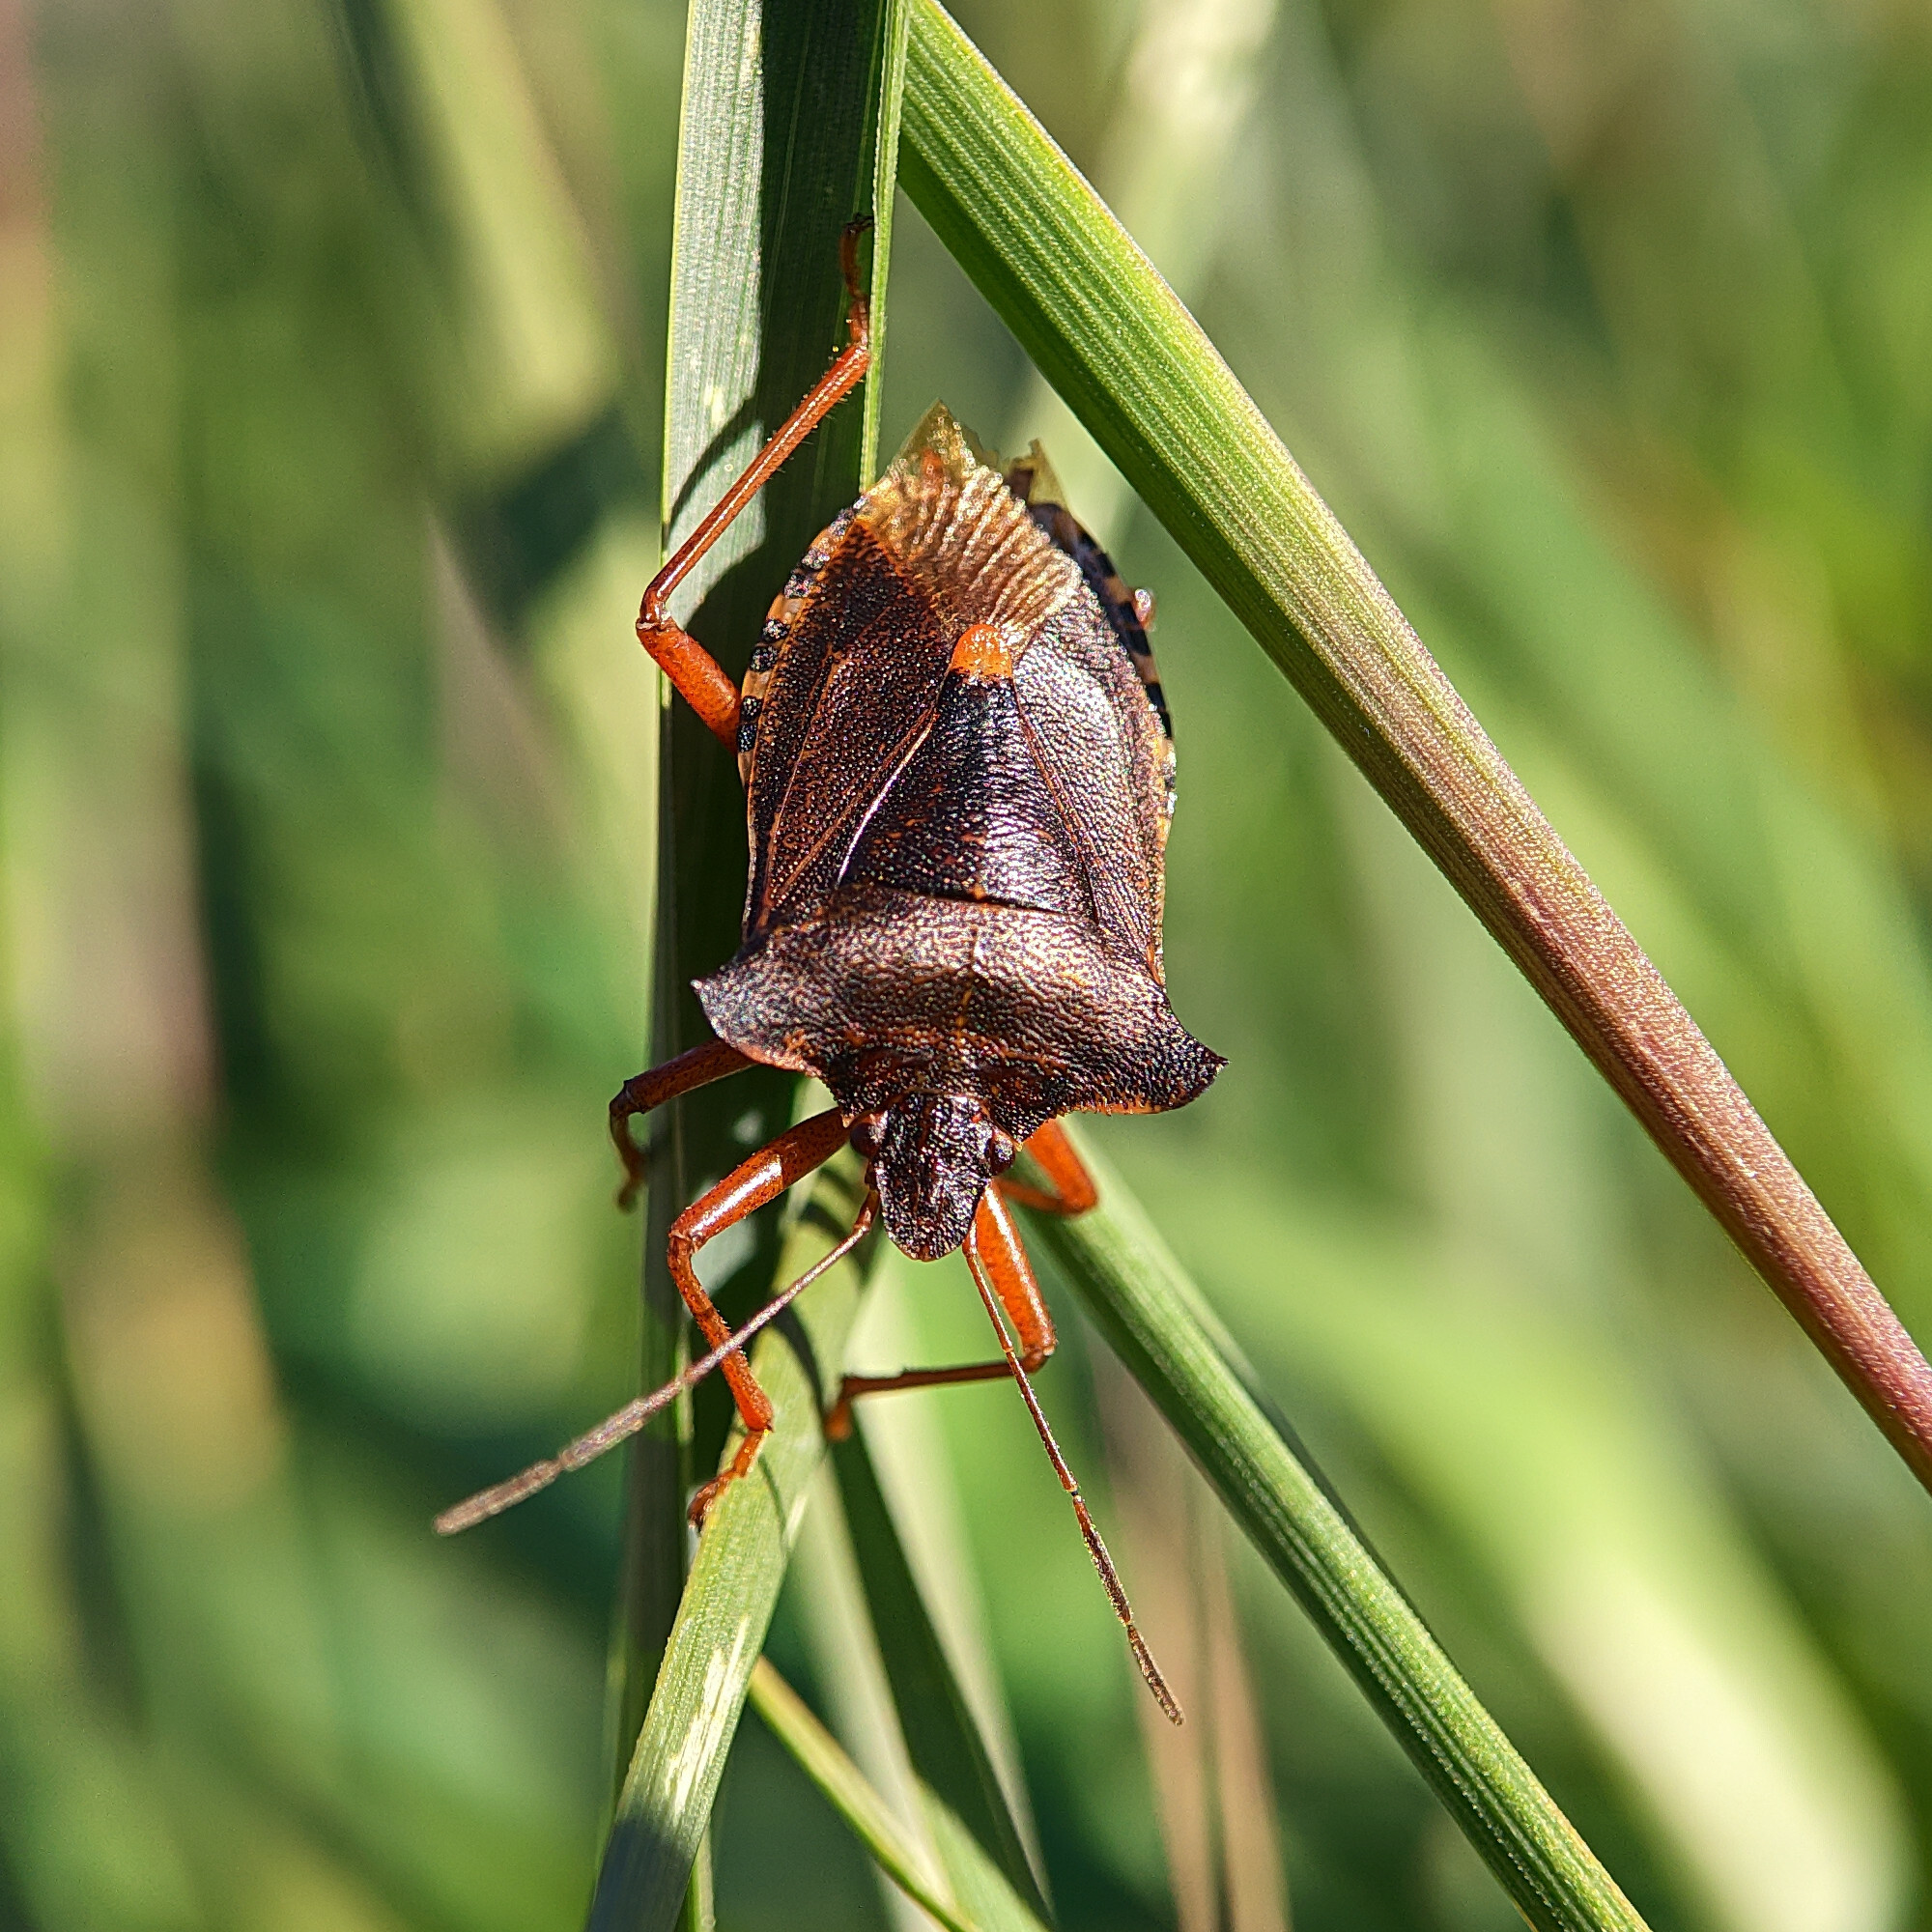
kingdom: Animalia
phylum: Arthropoda
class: Insecta
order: Hemiptera
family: Pentatomidae
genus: Pentatoma
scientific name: Pentatoma rufipes
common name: Forest bug
